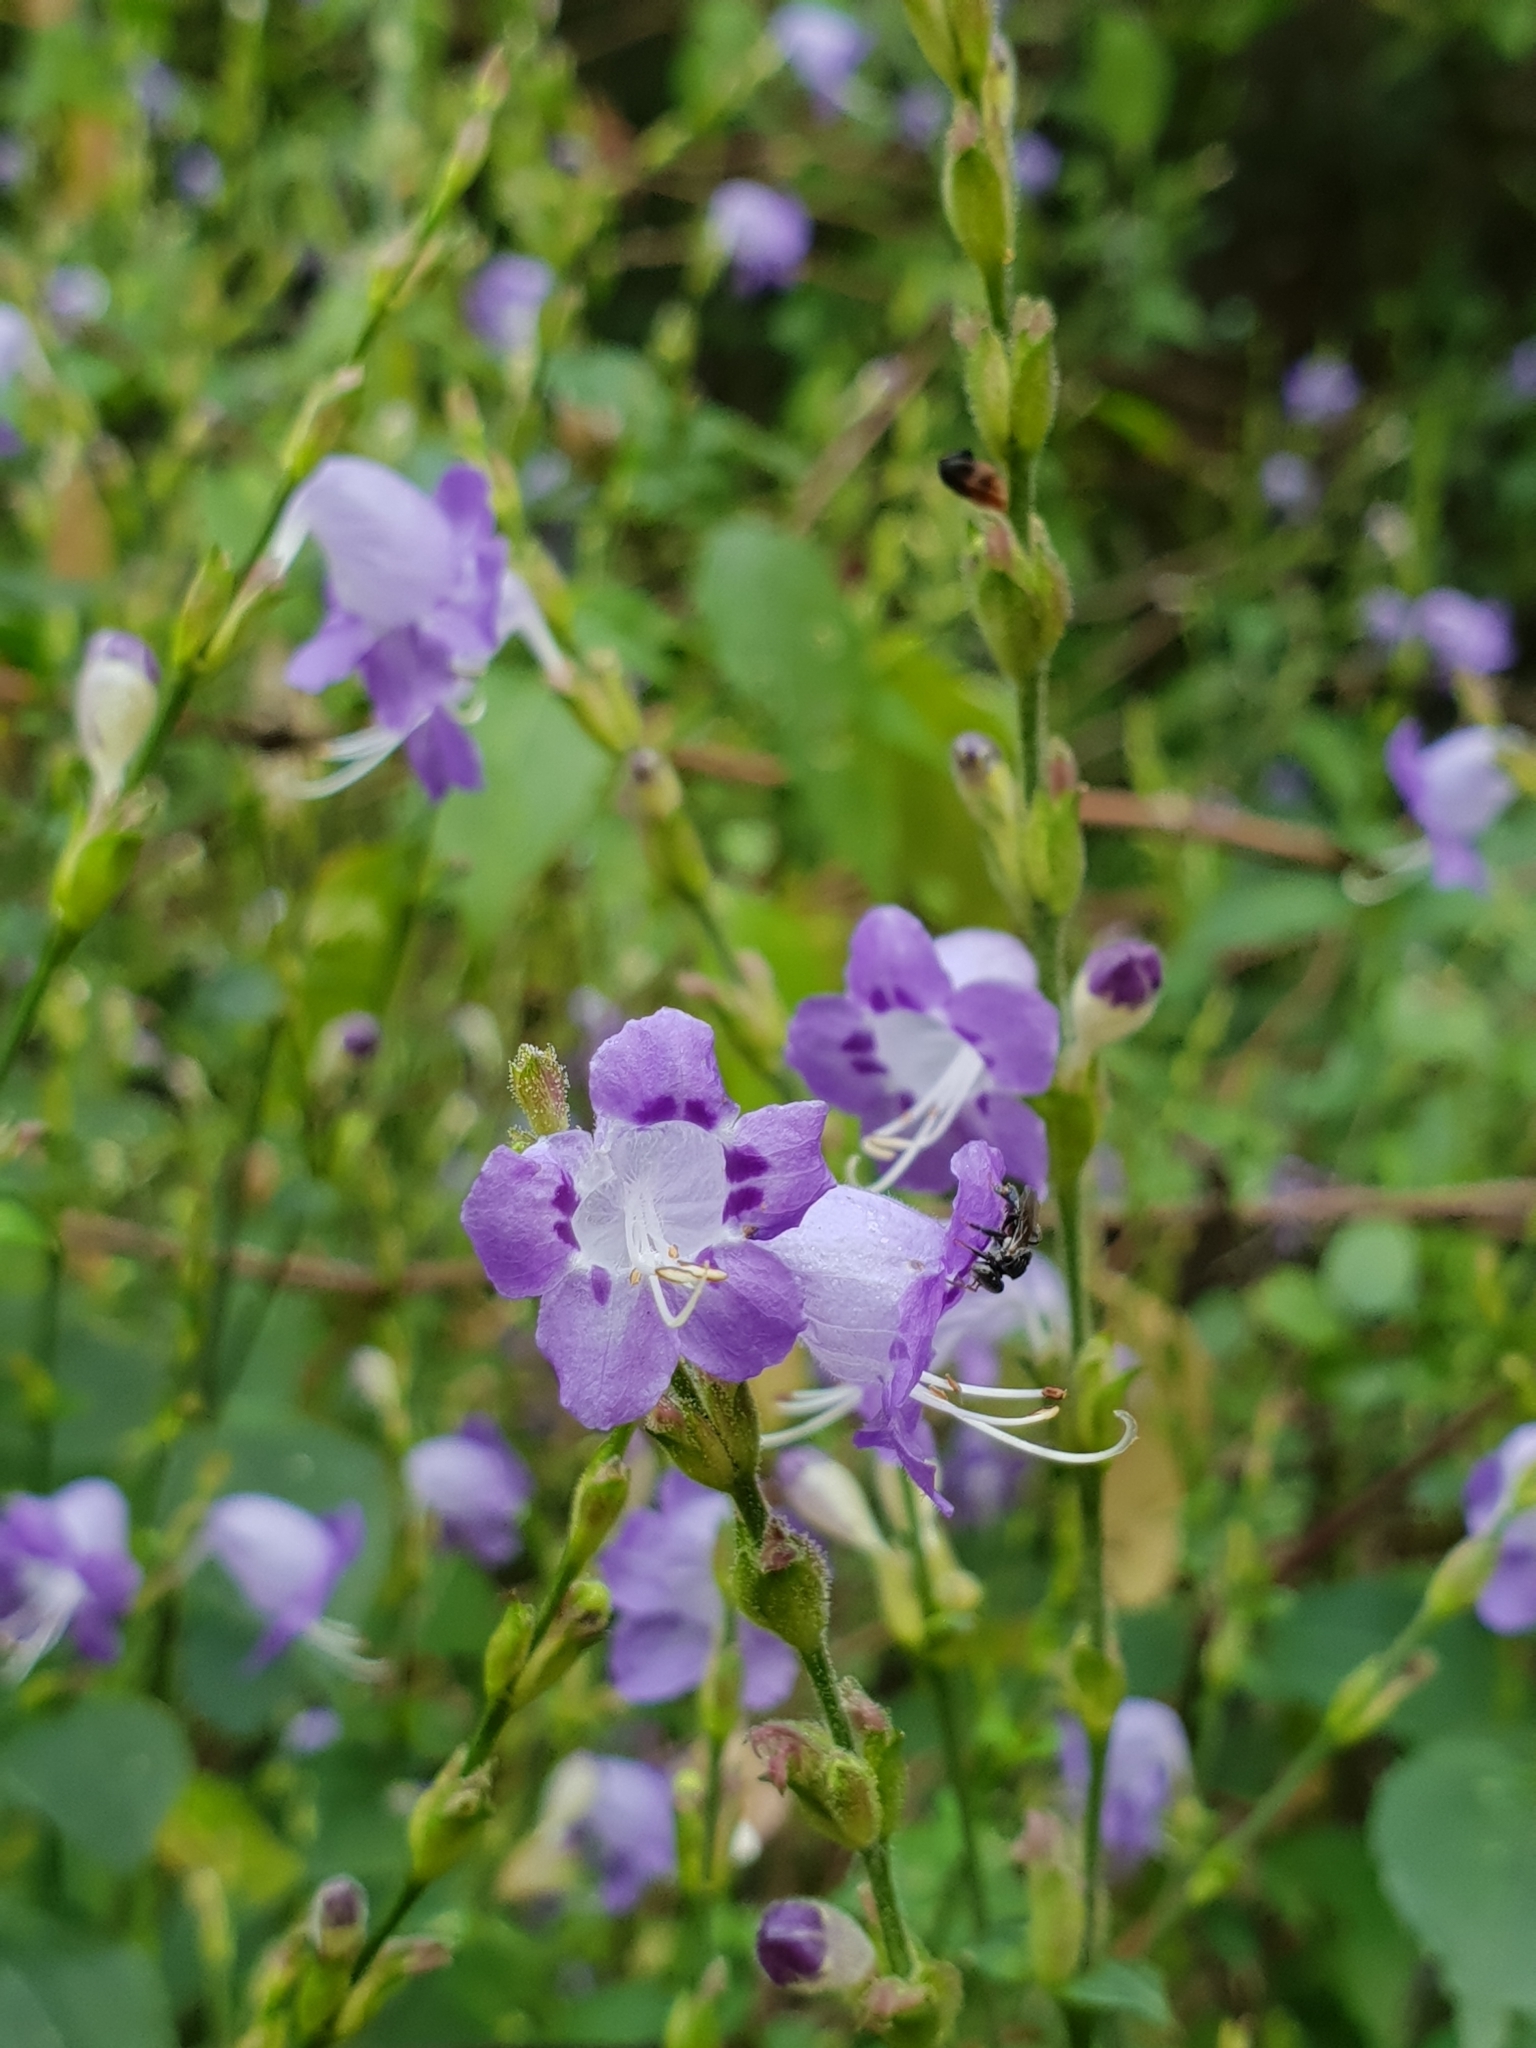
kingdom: Plantae
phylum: Tracheophyta
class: Magnoliopsida
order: Lamiales
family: Acanthaceae
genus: Strobilanthes
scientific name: Strobilanthes cordifolia
